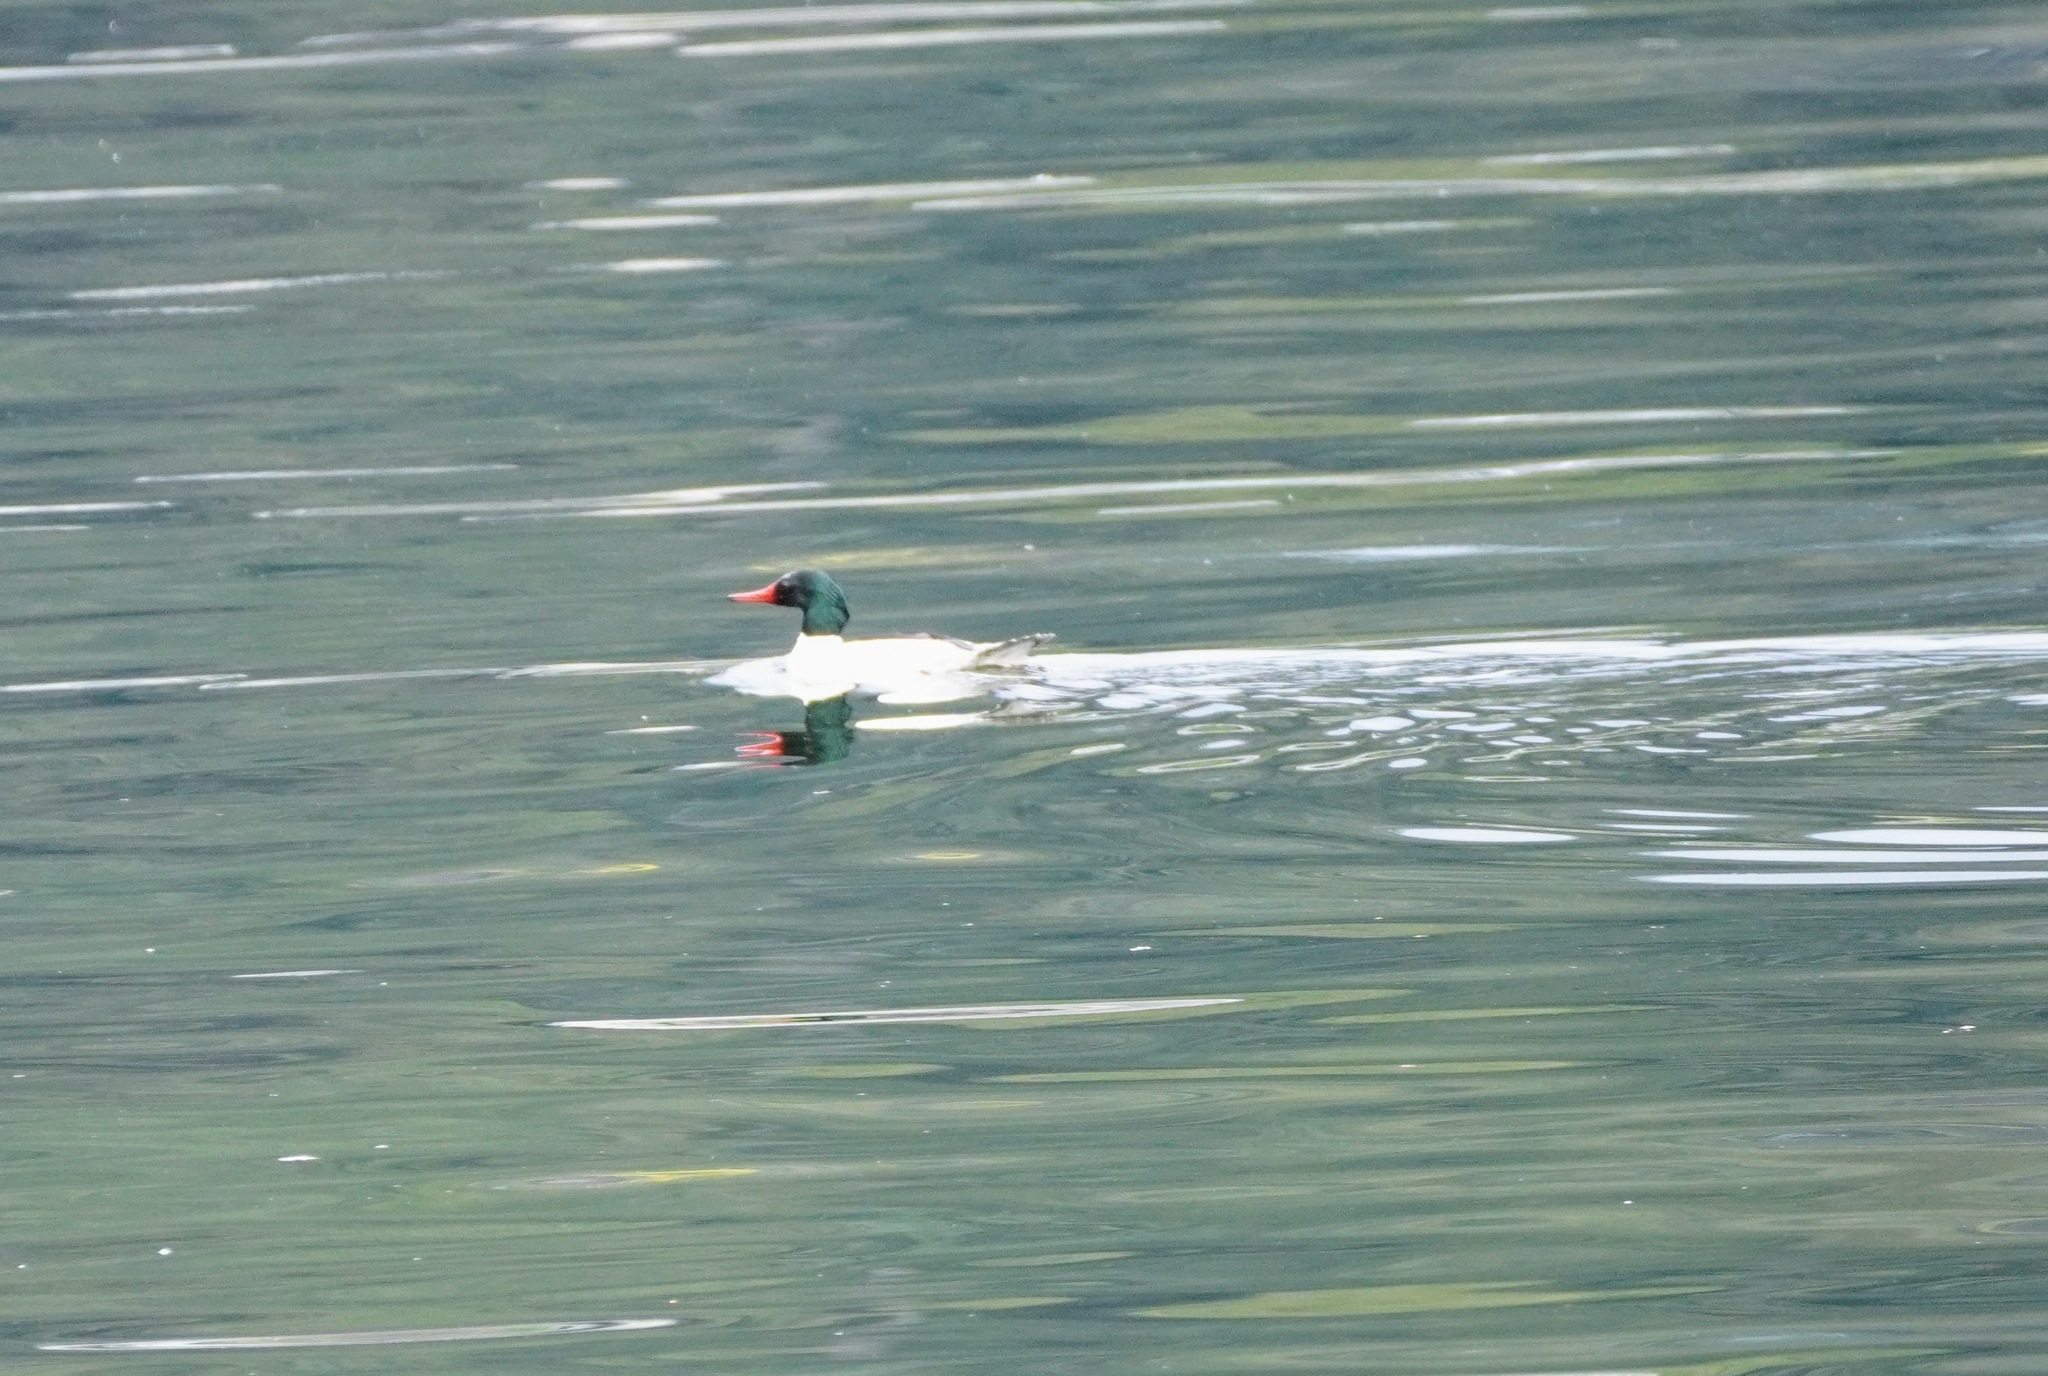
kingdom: Animalia
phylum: Chordata
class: Aves
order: Anseriformes
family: Anatidae
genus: Mergus
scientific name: Mergus merganser
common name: Common merganser
